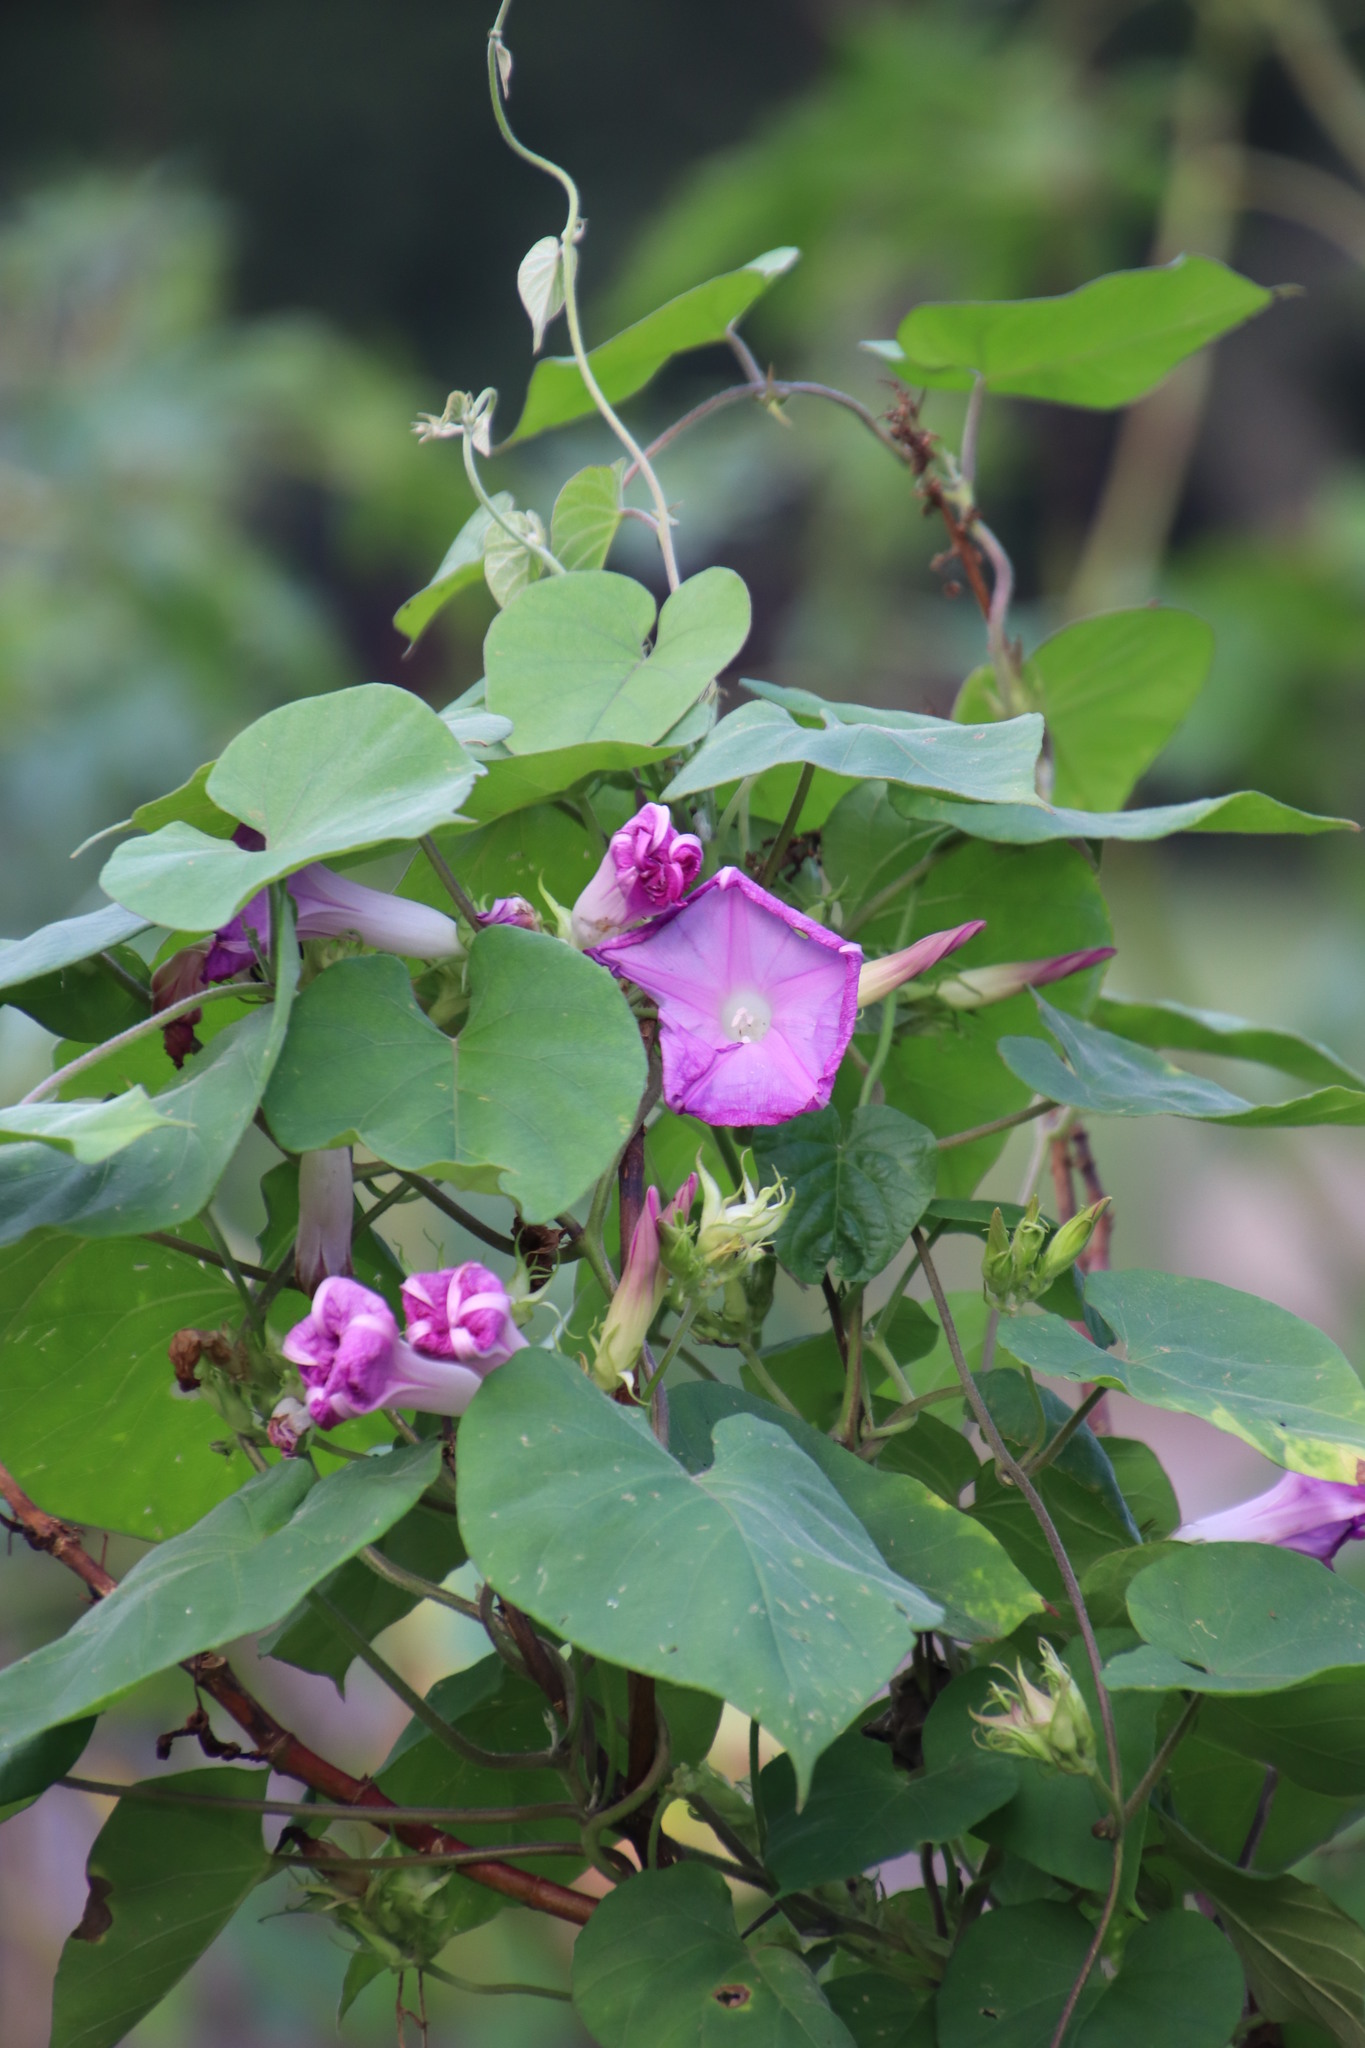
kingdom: Plantae
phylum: Tracheophyta
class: Magnoliopsida
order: Solanales
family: Convolvulaceae
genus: Ipomoea
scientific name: Ipomoea indica
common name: Blue dawnflower
